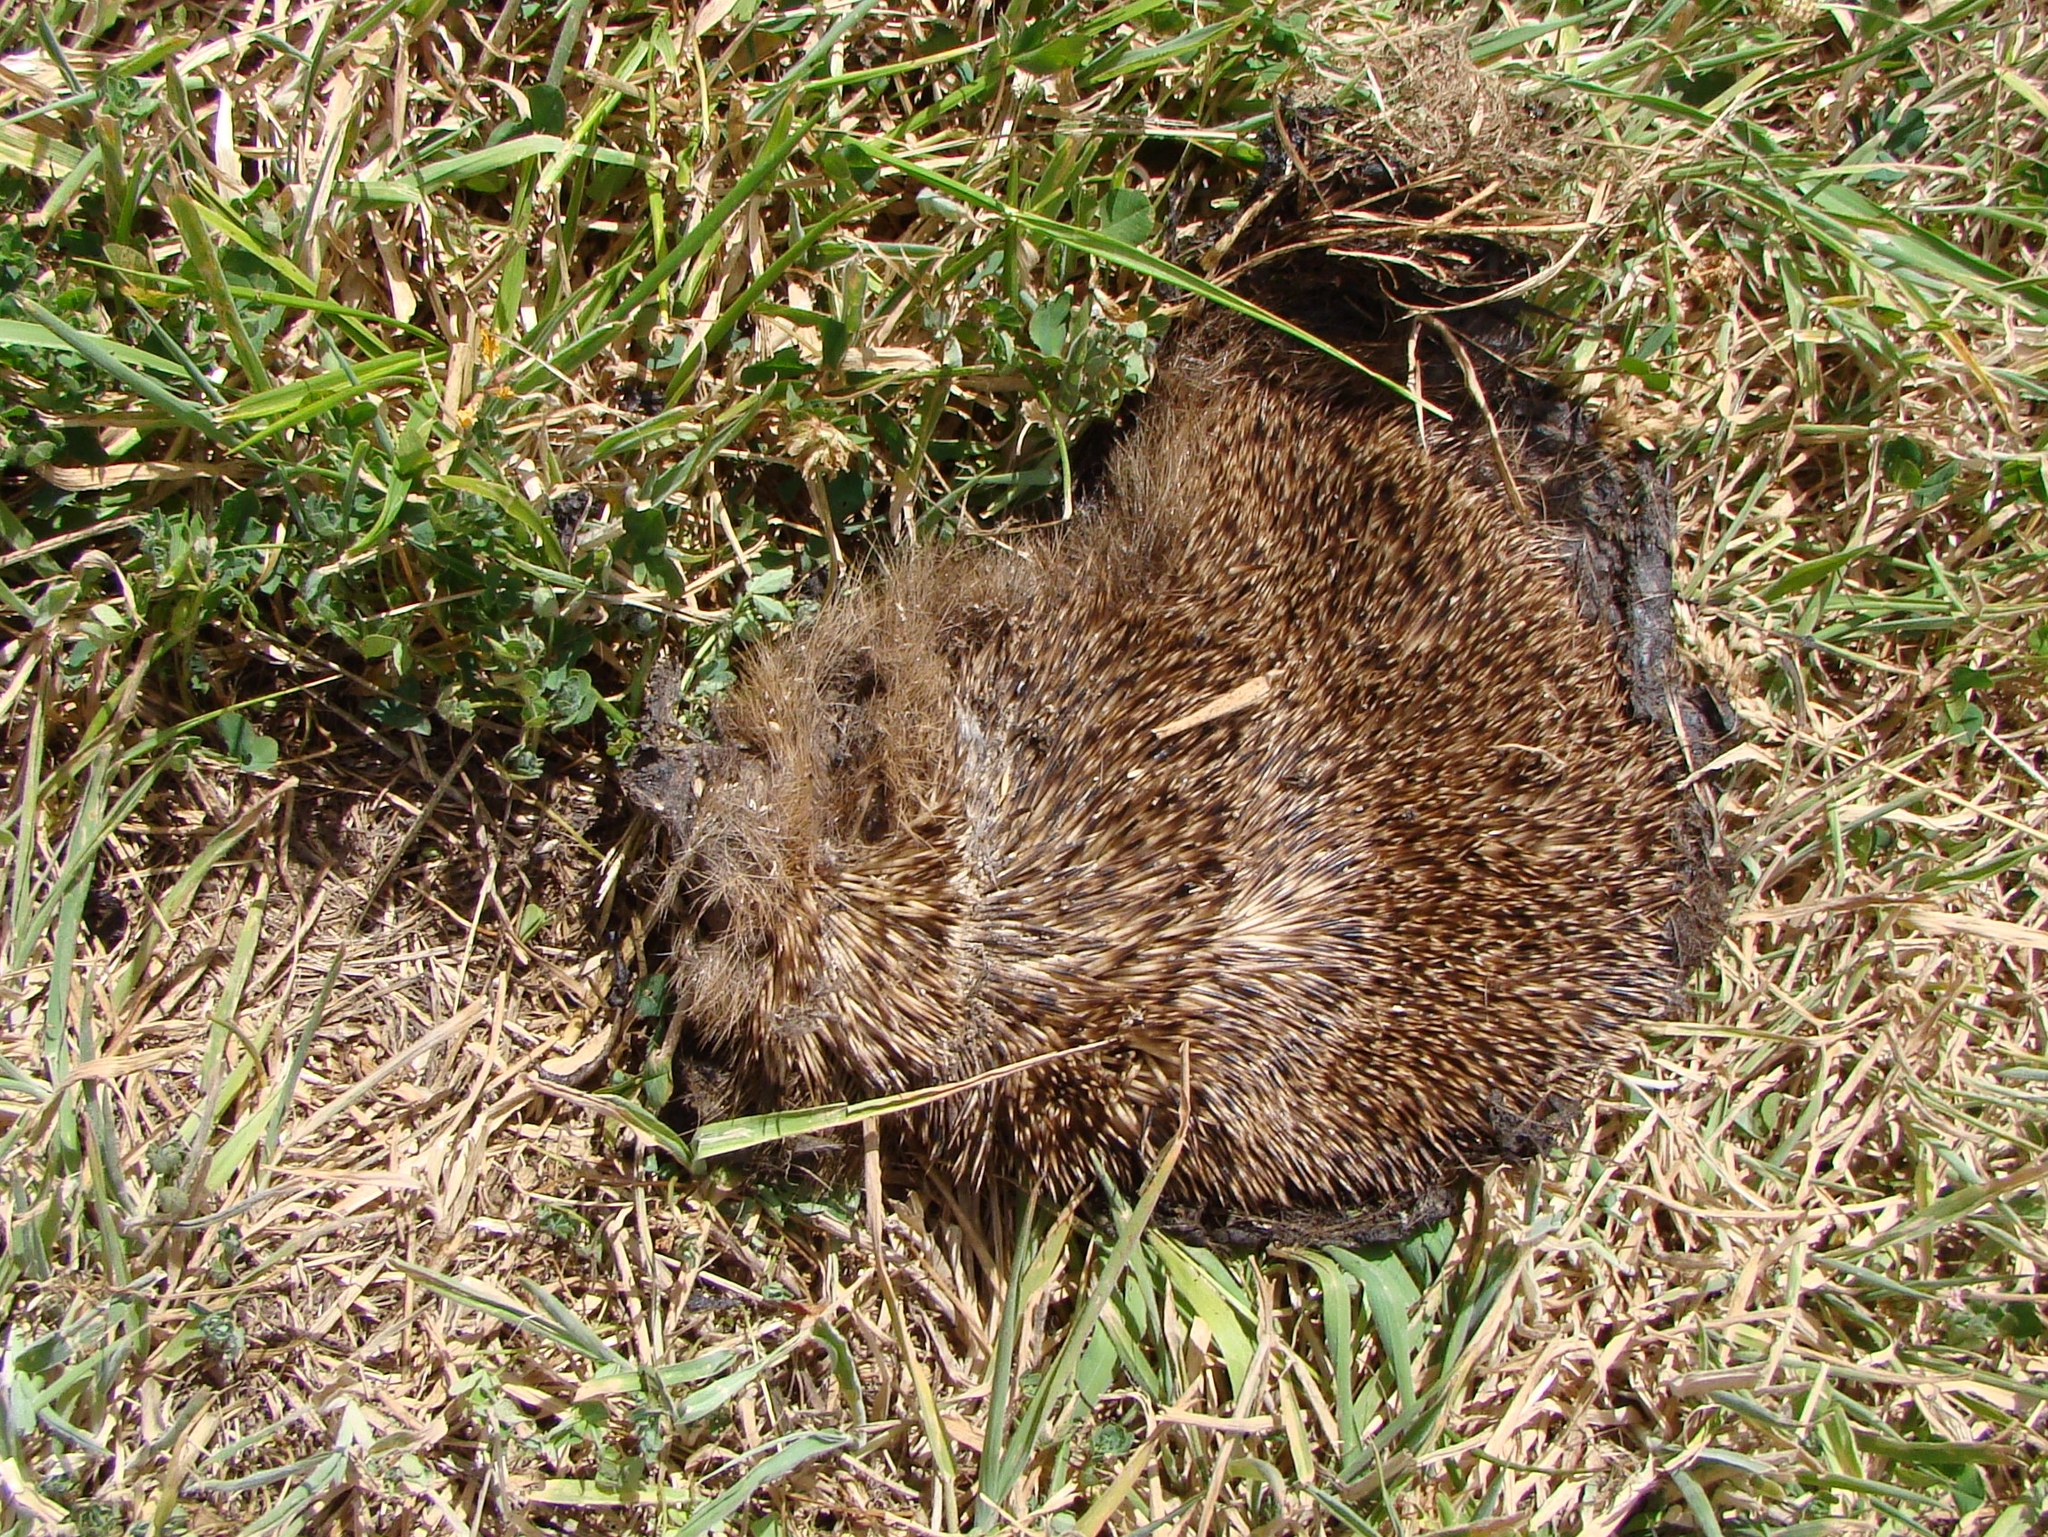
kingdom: Animalia
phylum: Chordata
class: Mammalia
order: Erinaceomorpha
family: Erinaceidae
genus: Erinaceus
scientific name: Erinaceus europaeus
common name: West european hedgehog
